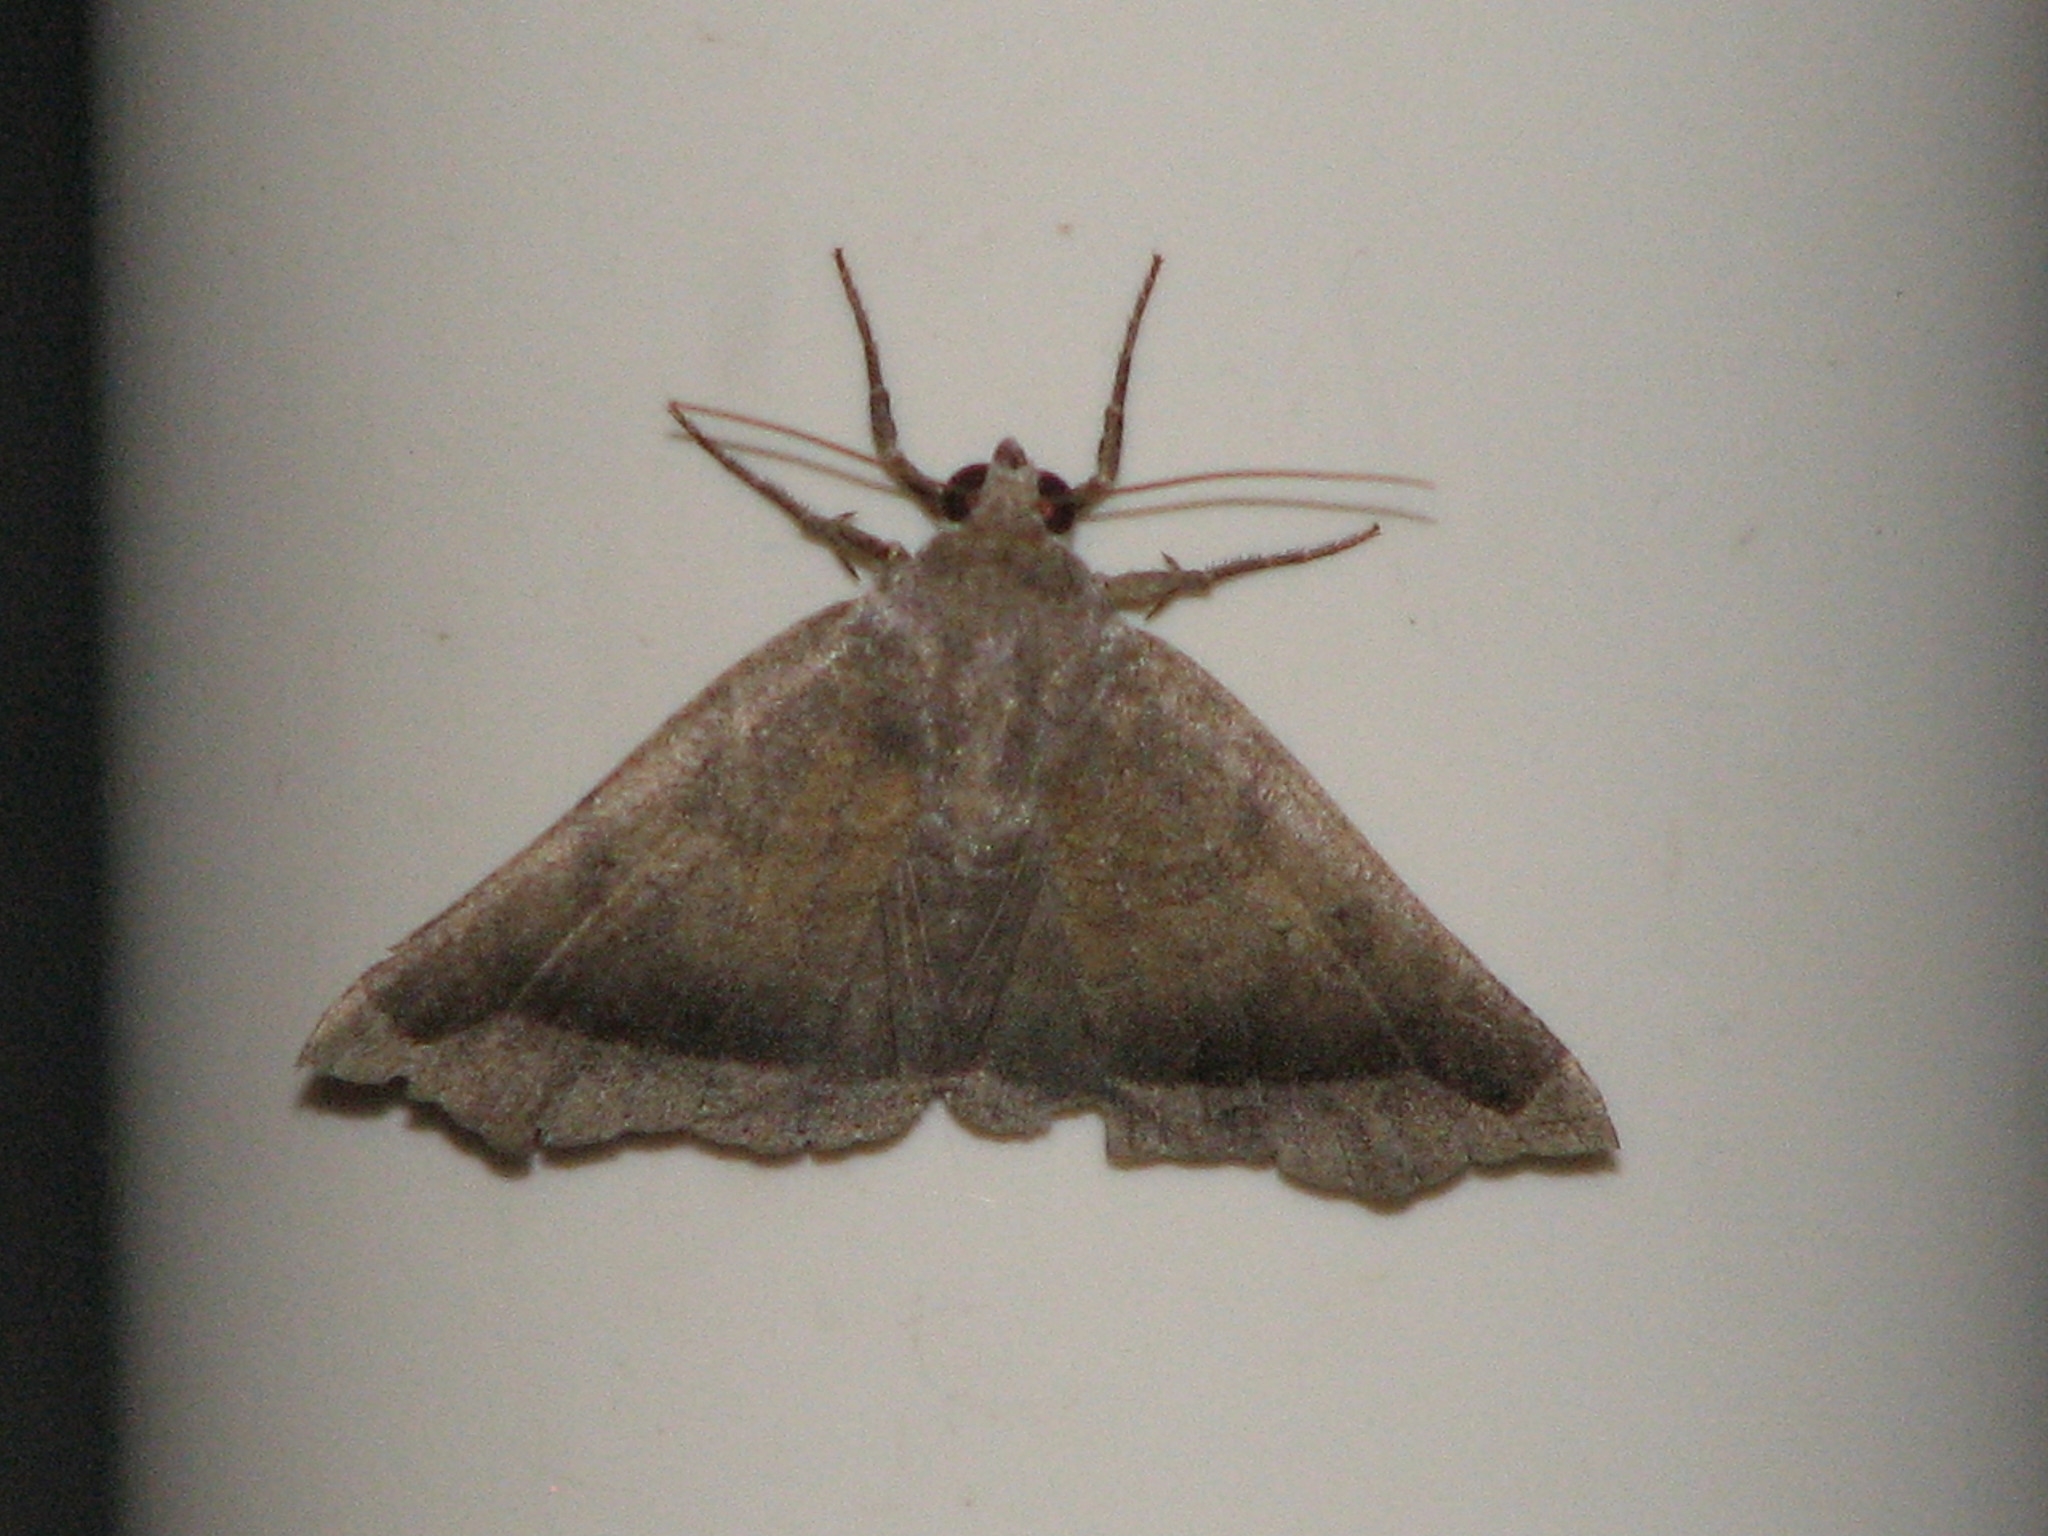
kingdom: Animalia
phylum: Arthropoda
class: Insecta
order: Lepidoptera
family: Erebidae
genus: Bendisodes
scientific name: Bendisodes aeolia
